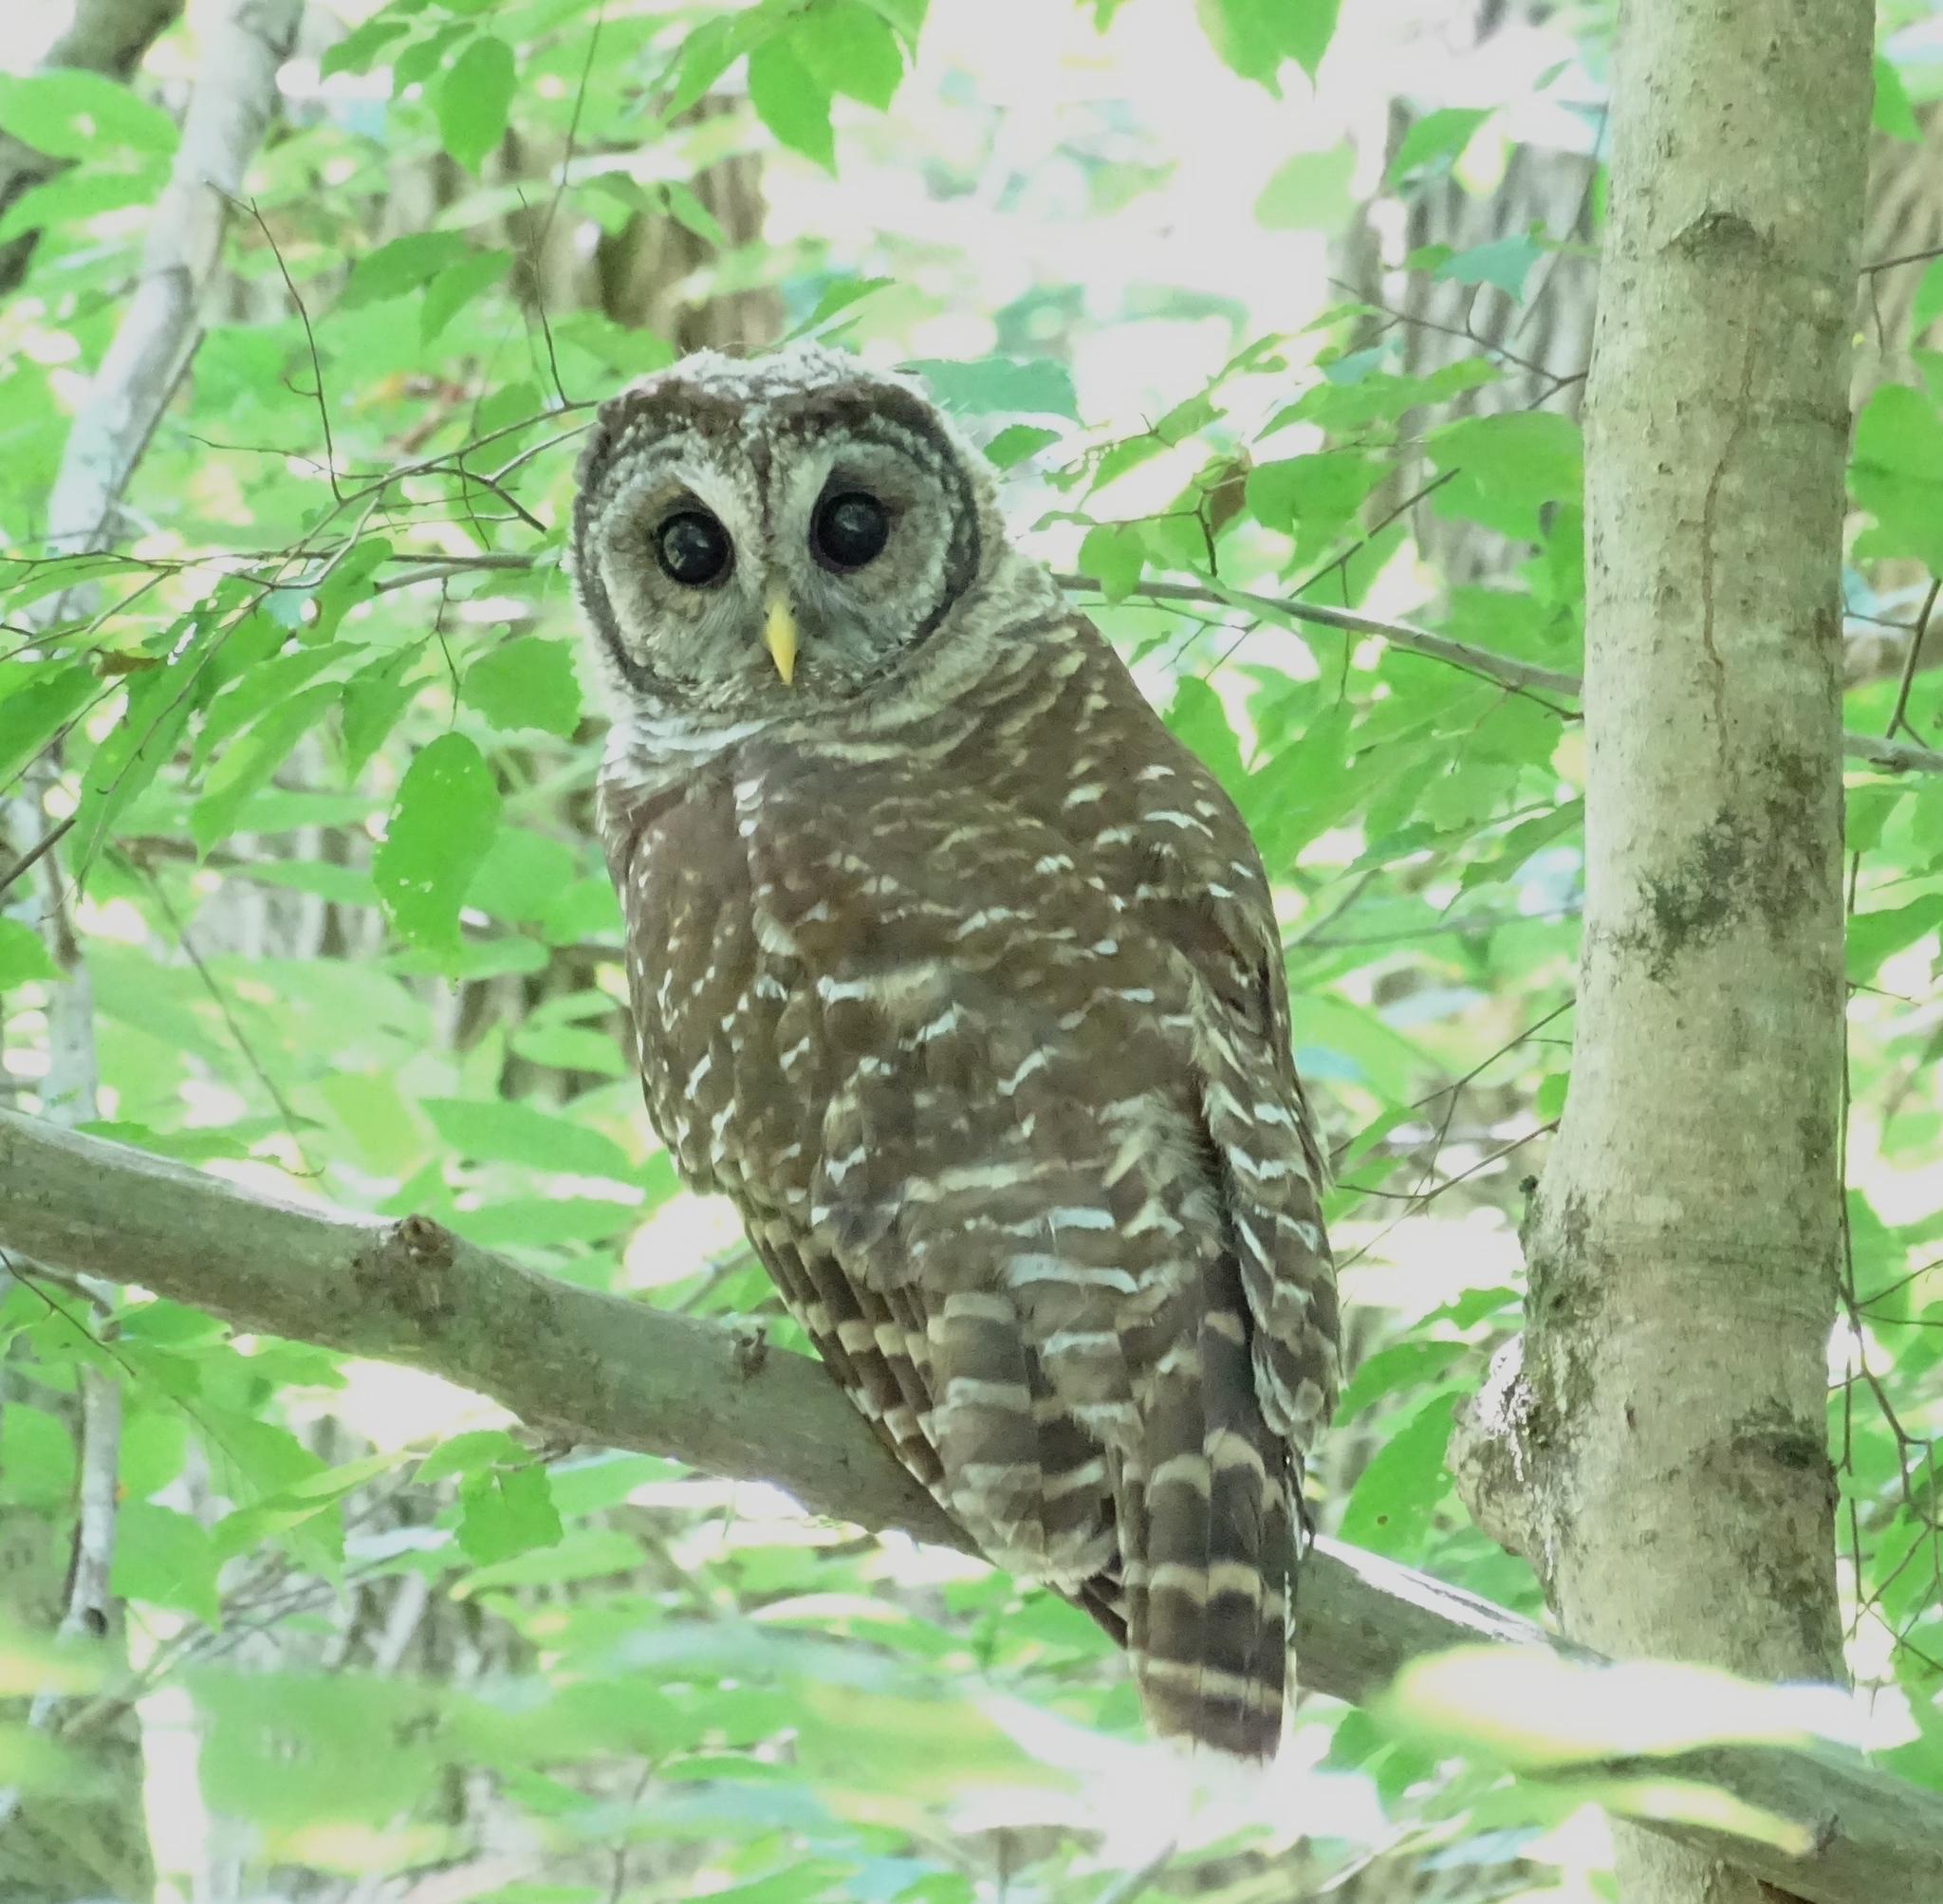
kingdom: Animalia
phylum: Chordata
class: Aves
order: Strigiformes
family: Strigidae
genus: Strix
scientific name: Strix varia
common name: Barred owl
